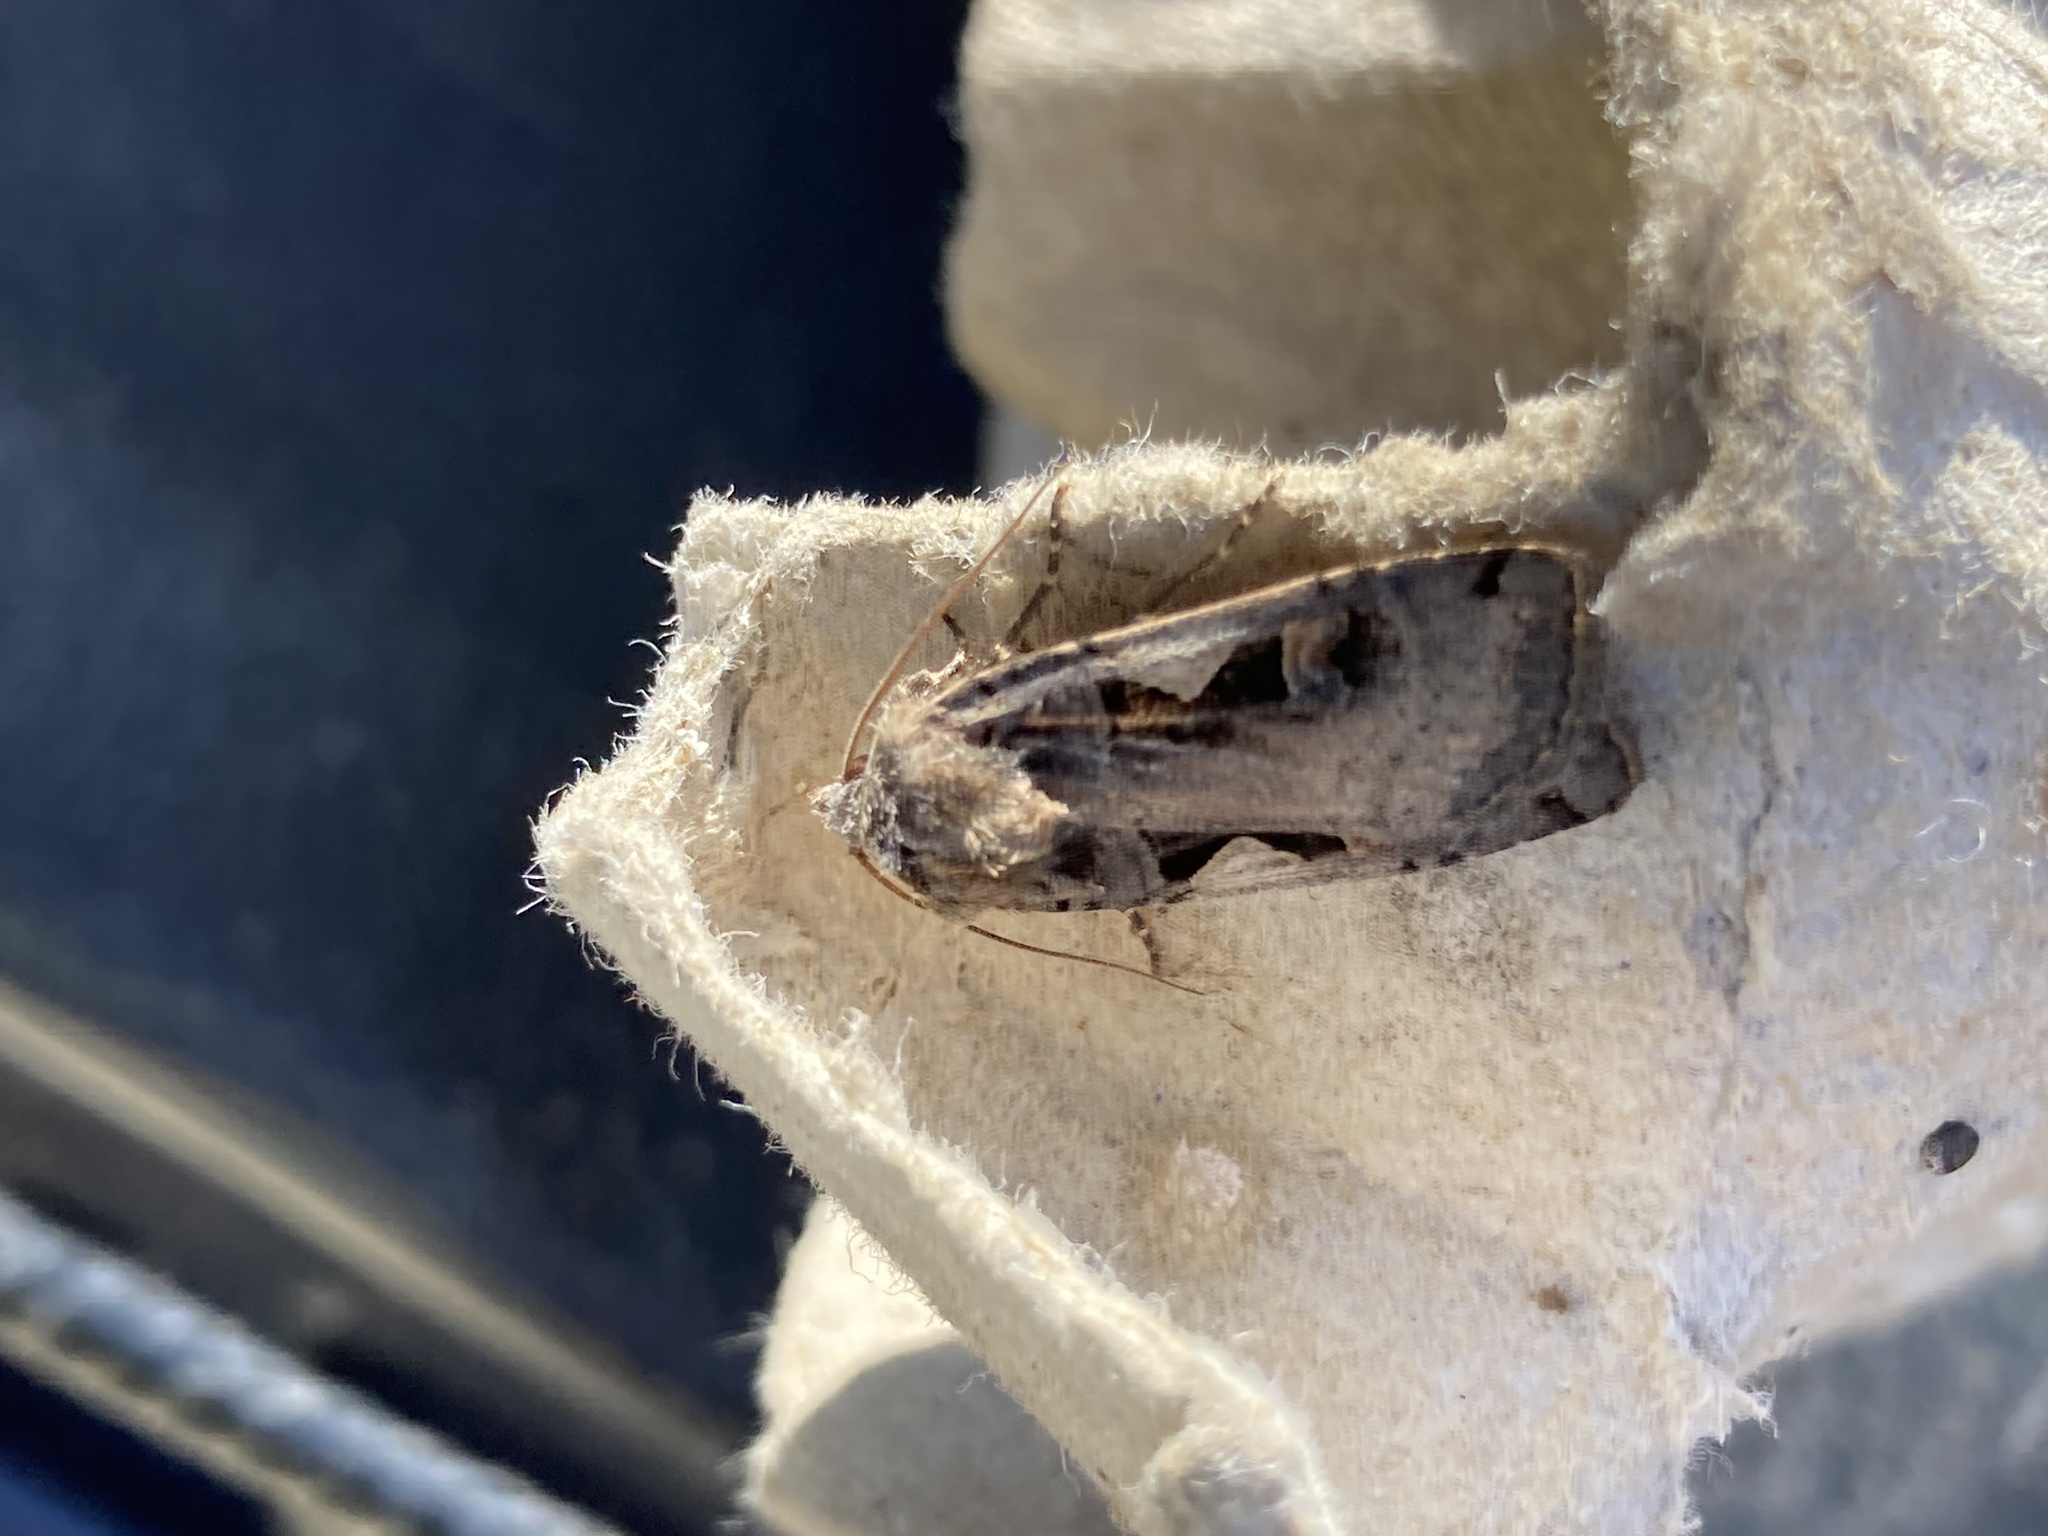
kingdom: Animalia
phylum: Arthropoda
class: Insecta
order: Lepidoptera
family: Noctuidae
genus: Xestia
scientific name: Xestia c-nigrum
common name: Setaceous hebrew character
